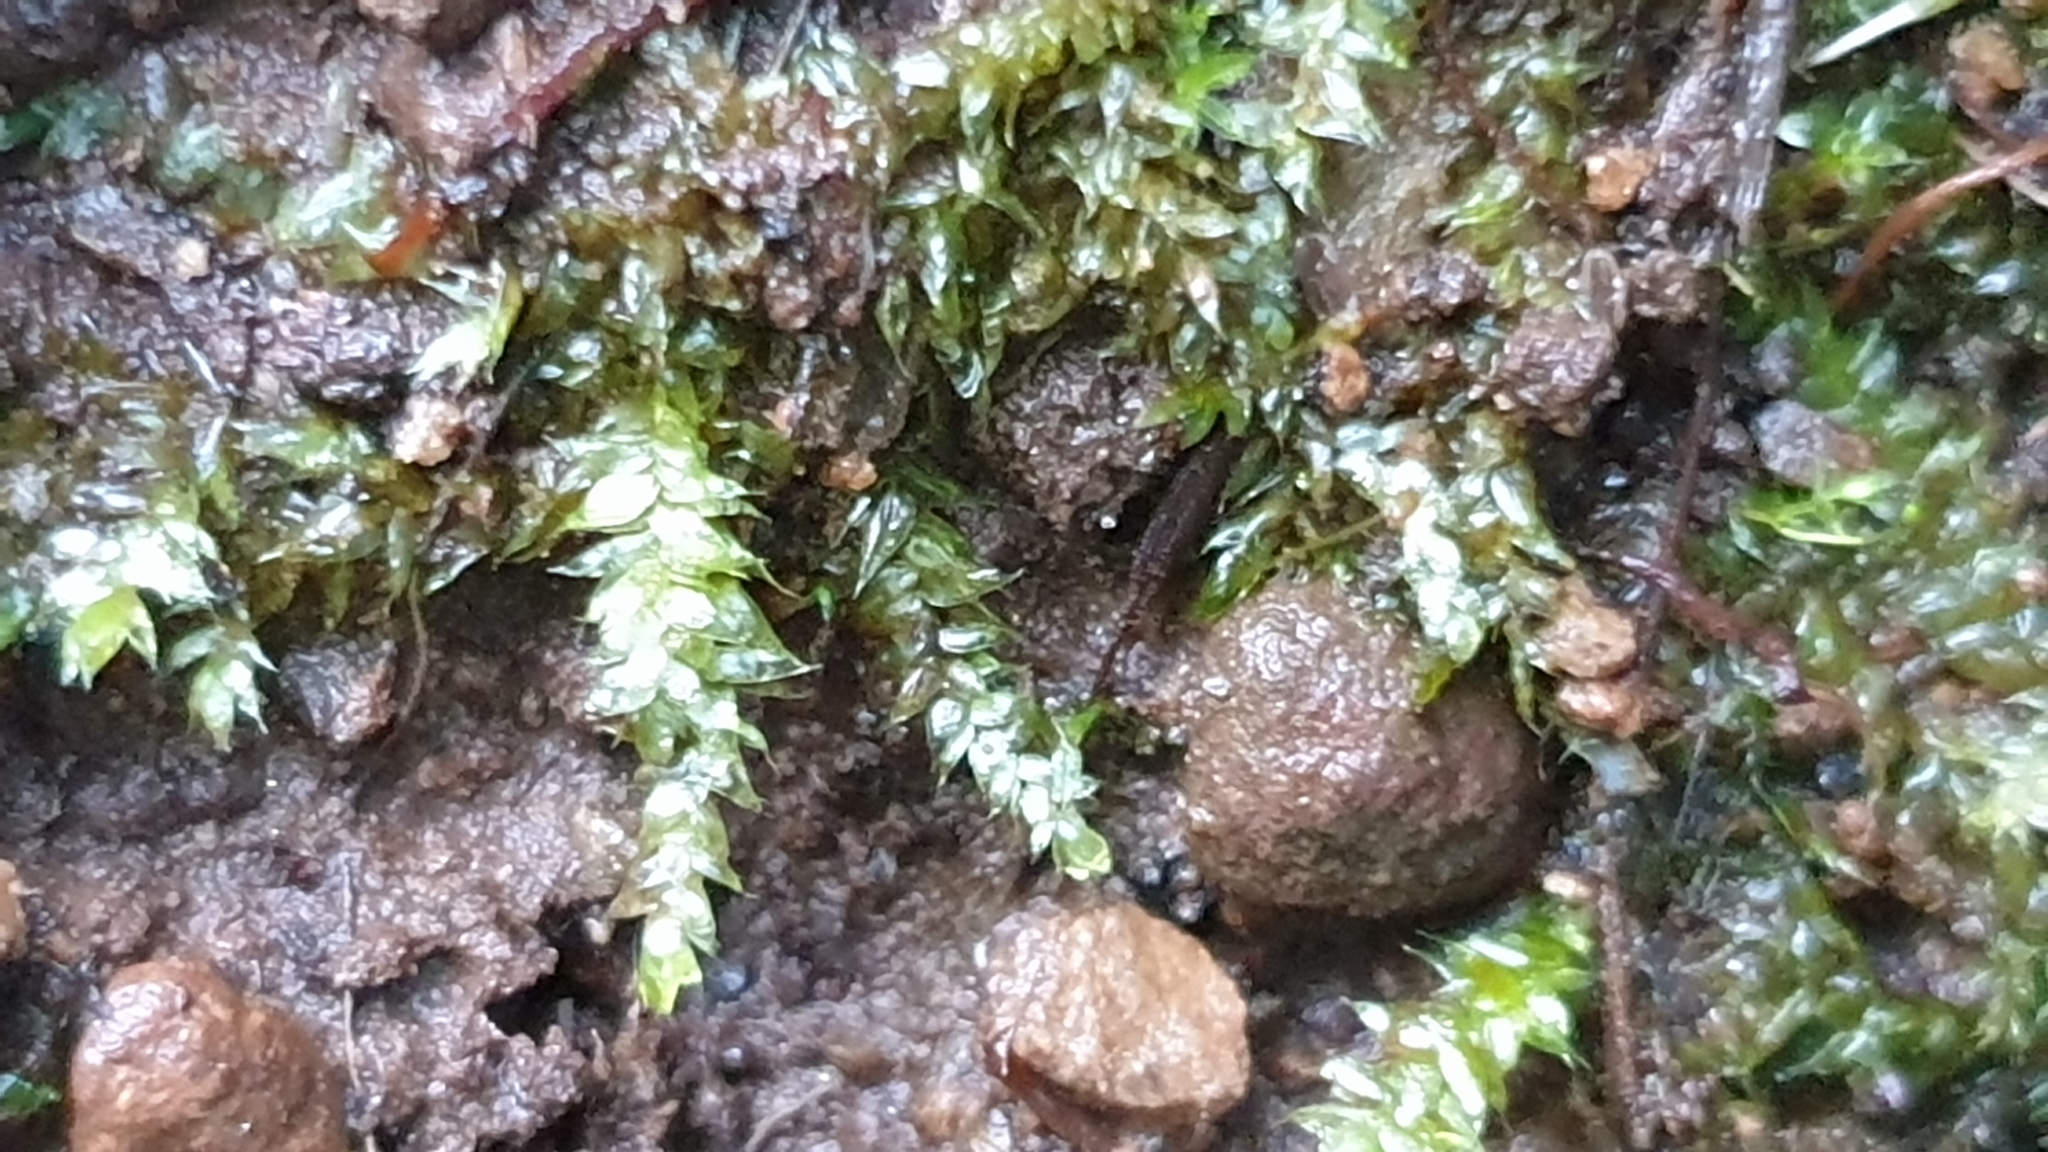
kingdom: Plantae
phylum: Bryophyta
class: Bryopsida
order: Hypnales
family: Brachytheciaceae
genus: Rhynchostegium
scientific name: Rhynchostegium tenuifolium
